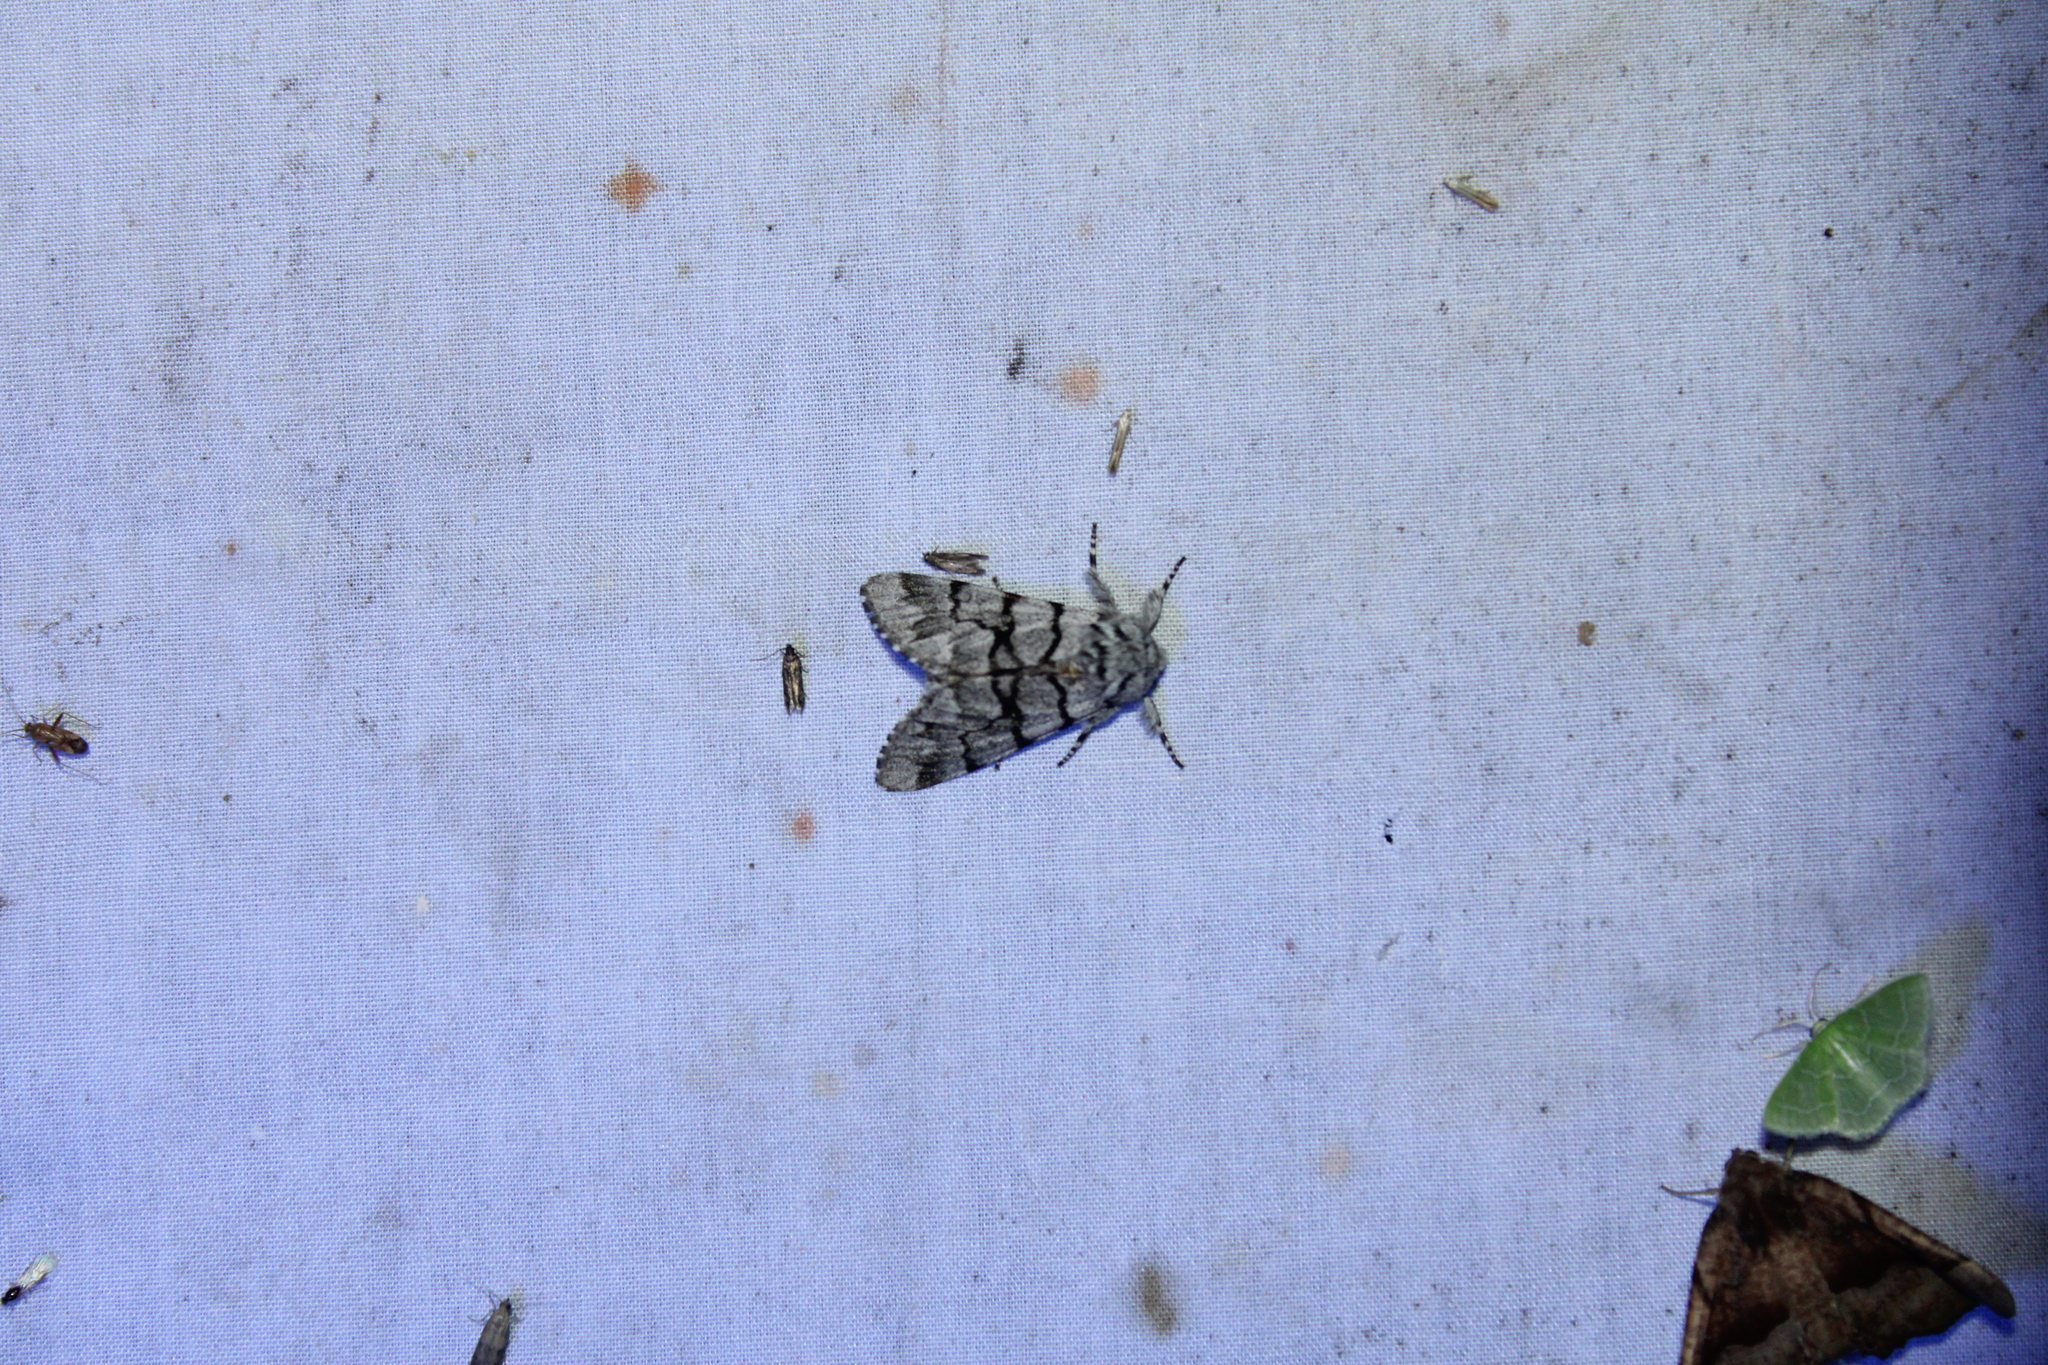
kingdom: Animalia
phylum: Arthropoda
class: Insecta
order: Lepidoptera
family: Noctuidae
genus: Panthea
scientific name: Panthea furcilla
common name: Eastern panthea moth
